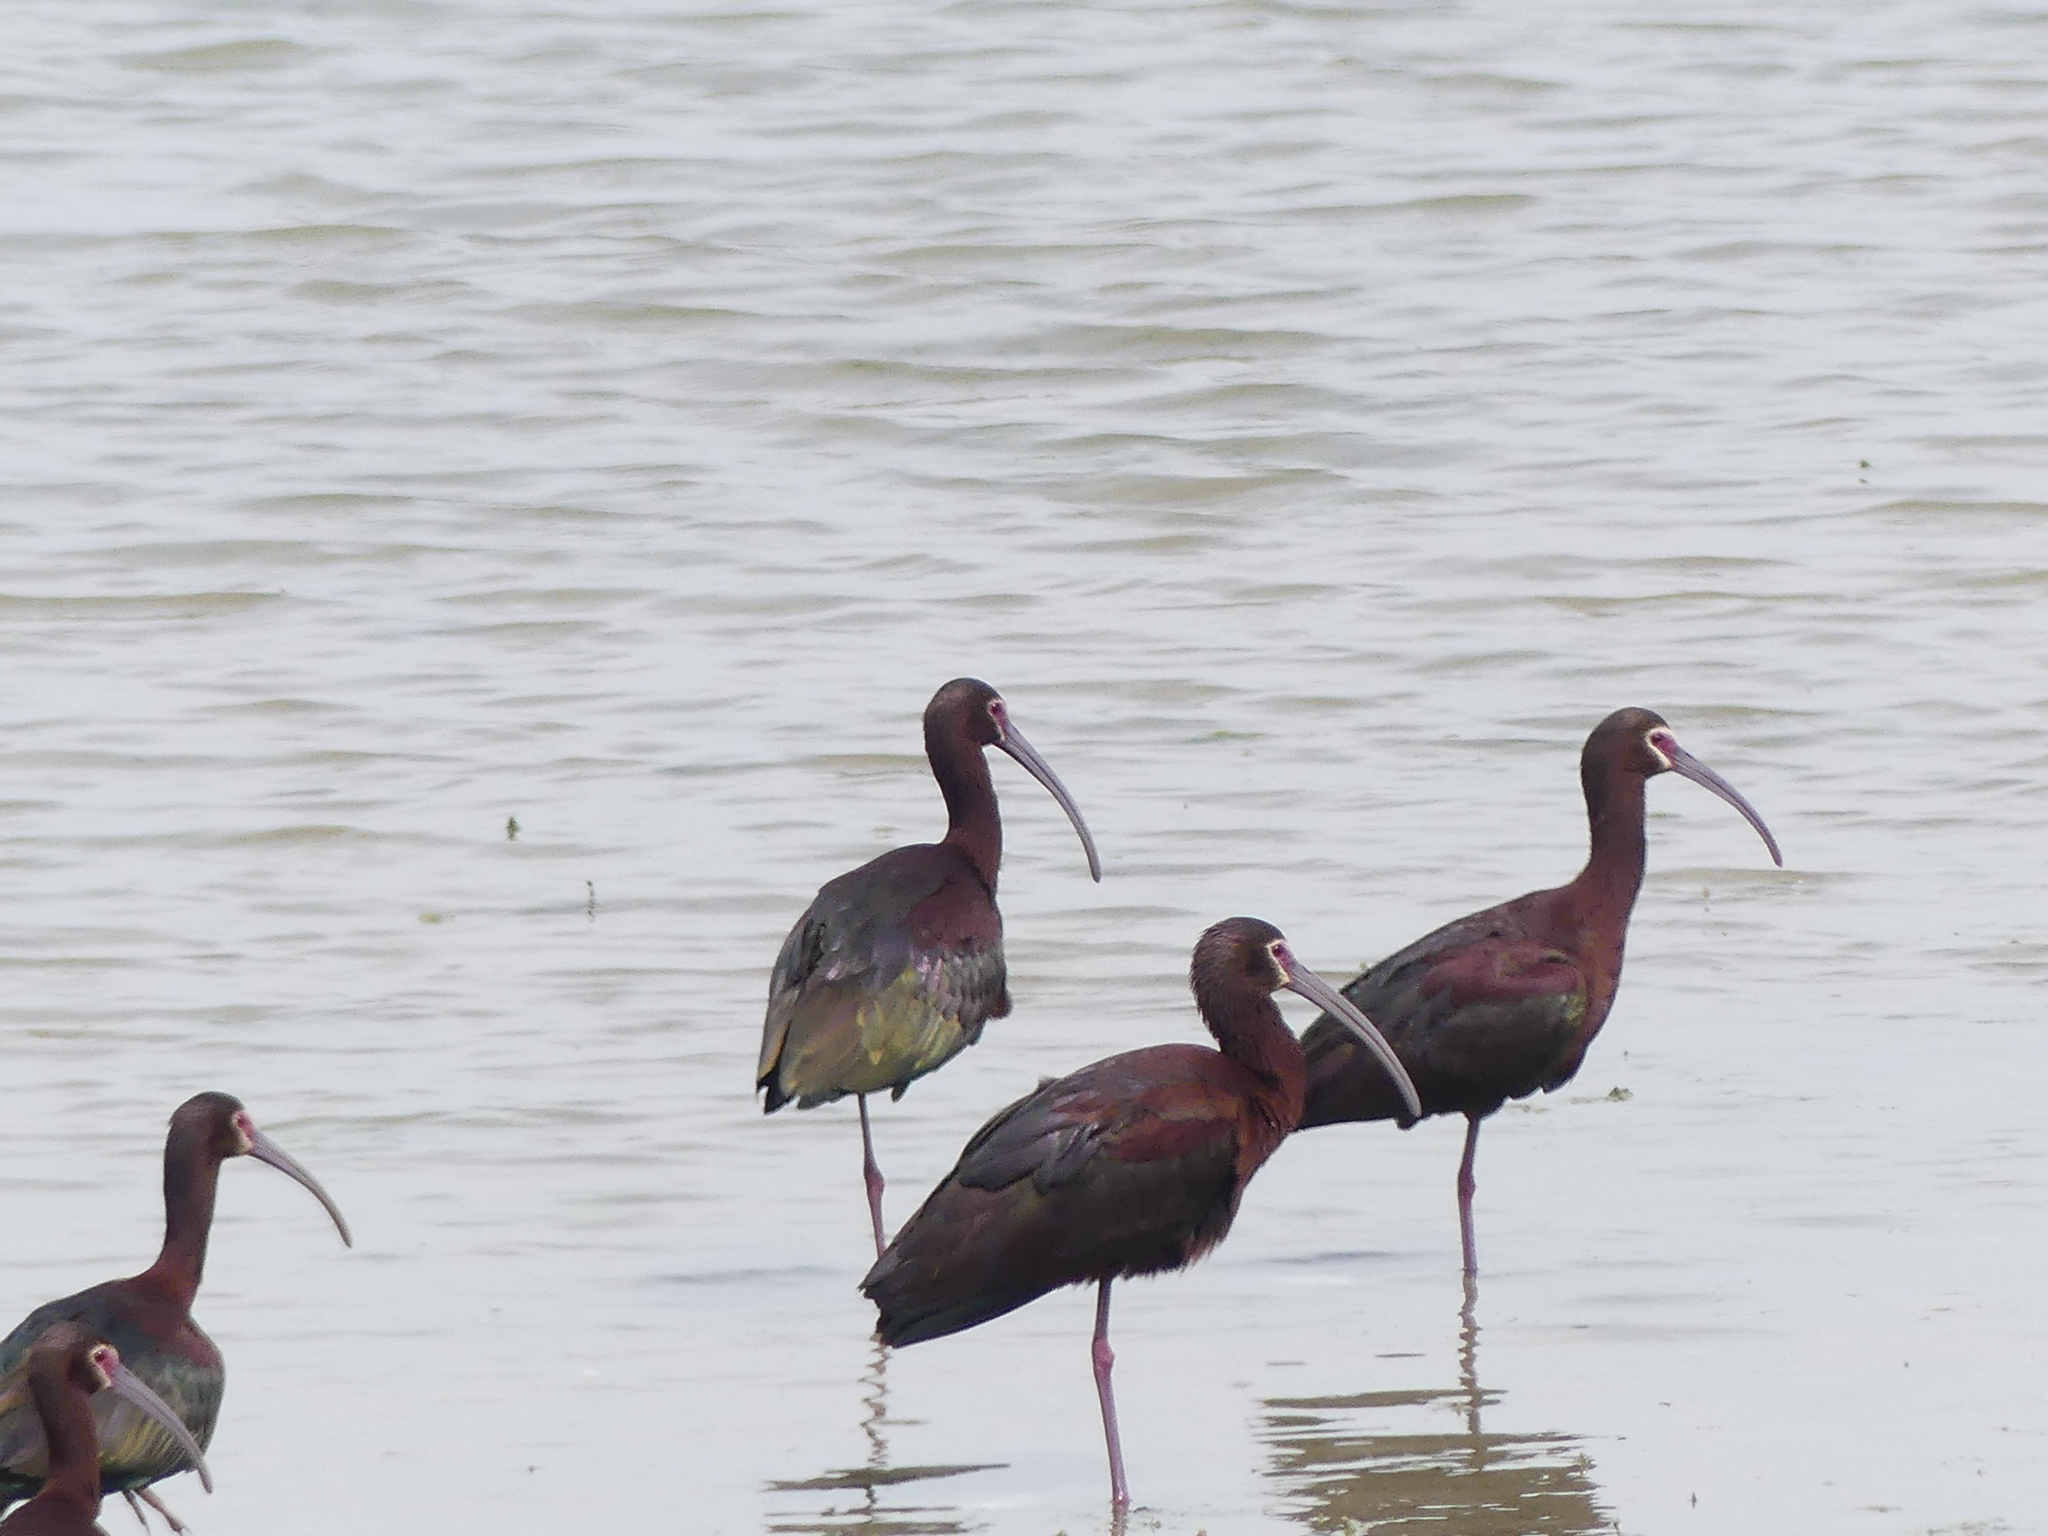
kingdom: Animalia
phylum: Chordata
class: Aves
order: Pelecaniformes
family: Threskiornithidae
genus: Plegadis
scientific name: Plegadis chihi
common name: White-faced ibis
